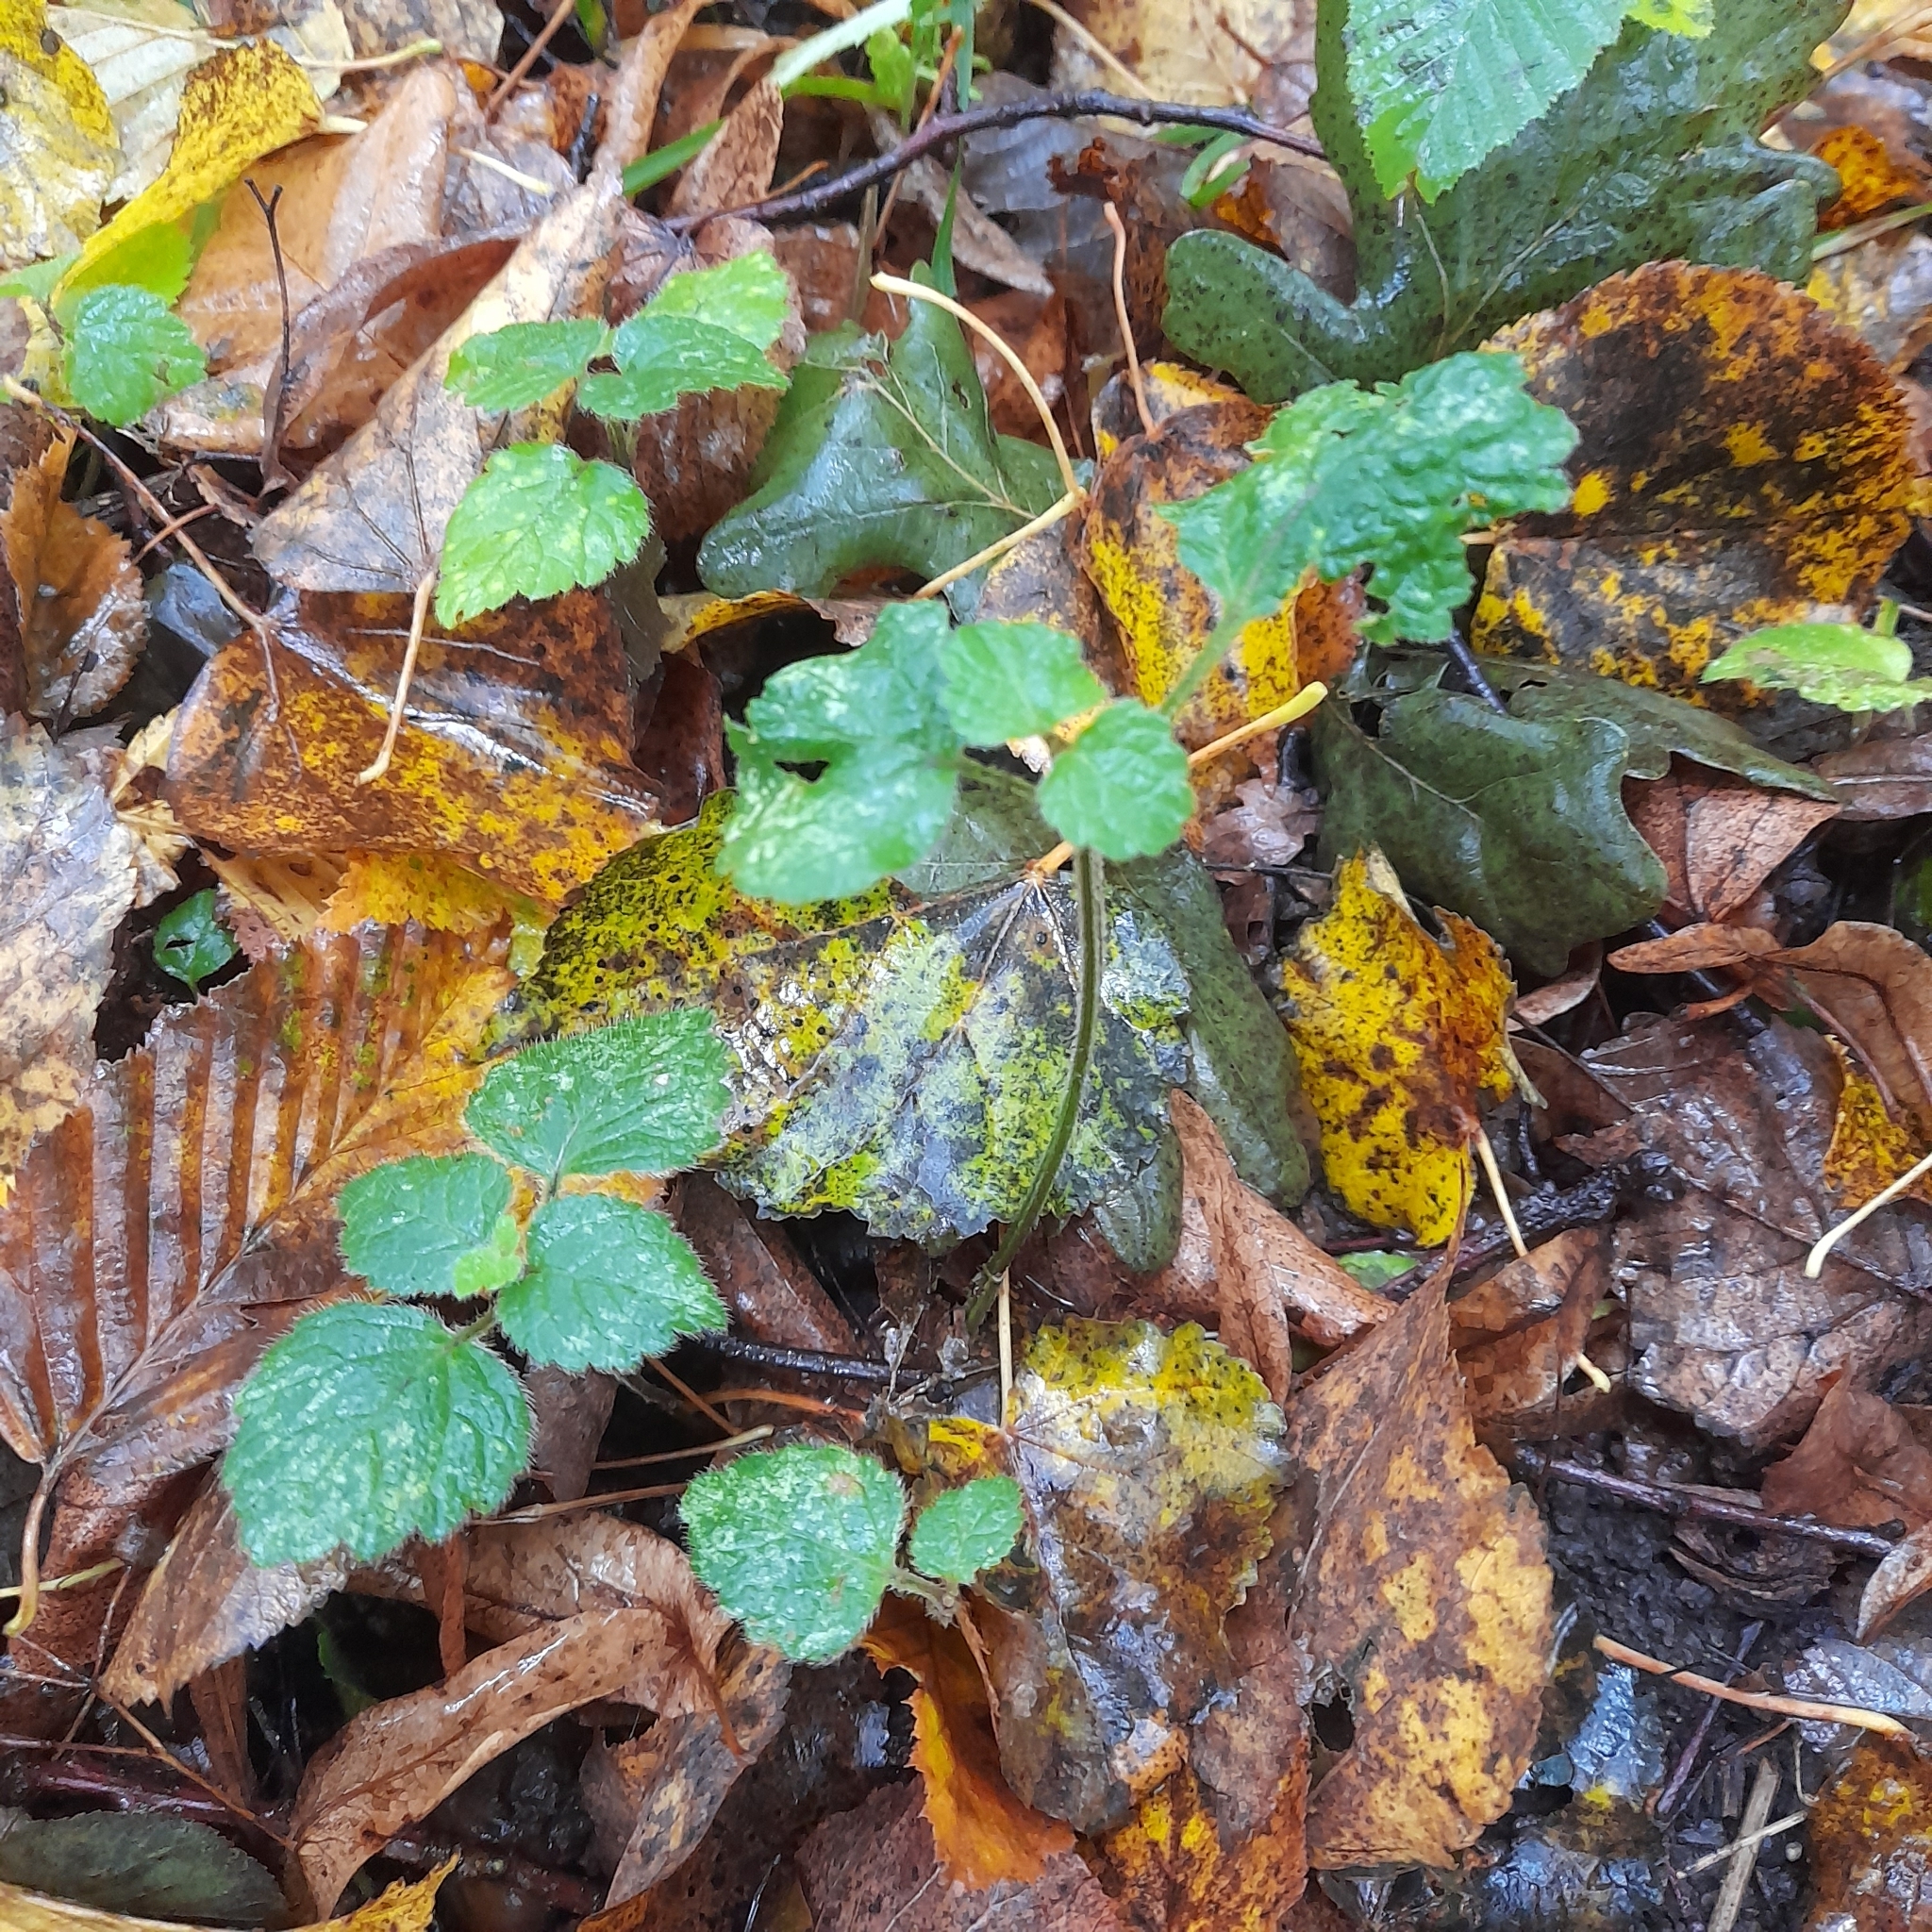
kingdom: Plantae
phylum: Tracheophyta
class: Magnoliopsida
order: Lamiales
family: Lamiaceae
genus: Lamium
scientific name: Lamium galeobdolon
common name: Yellow archangel
